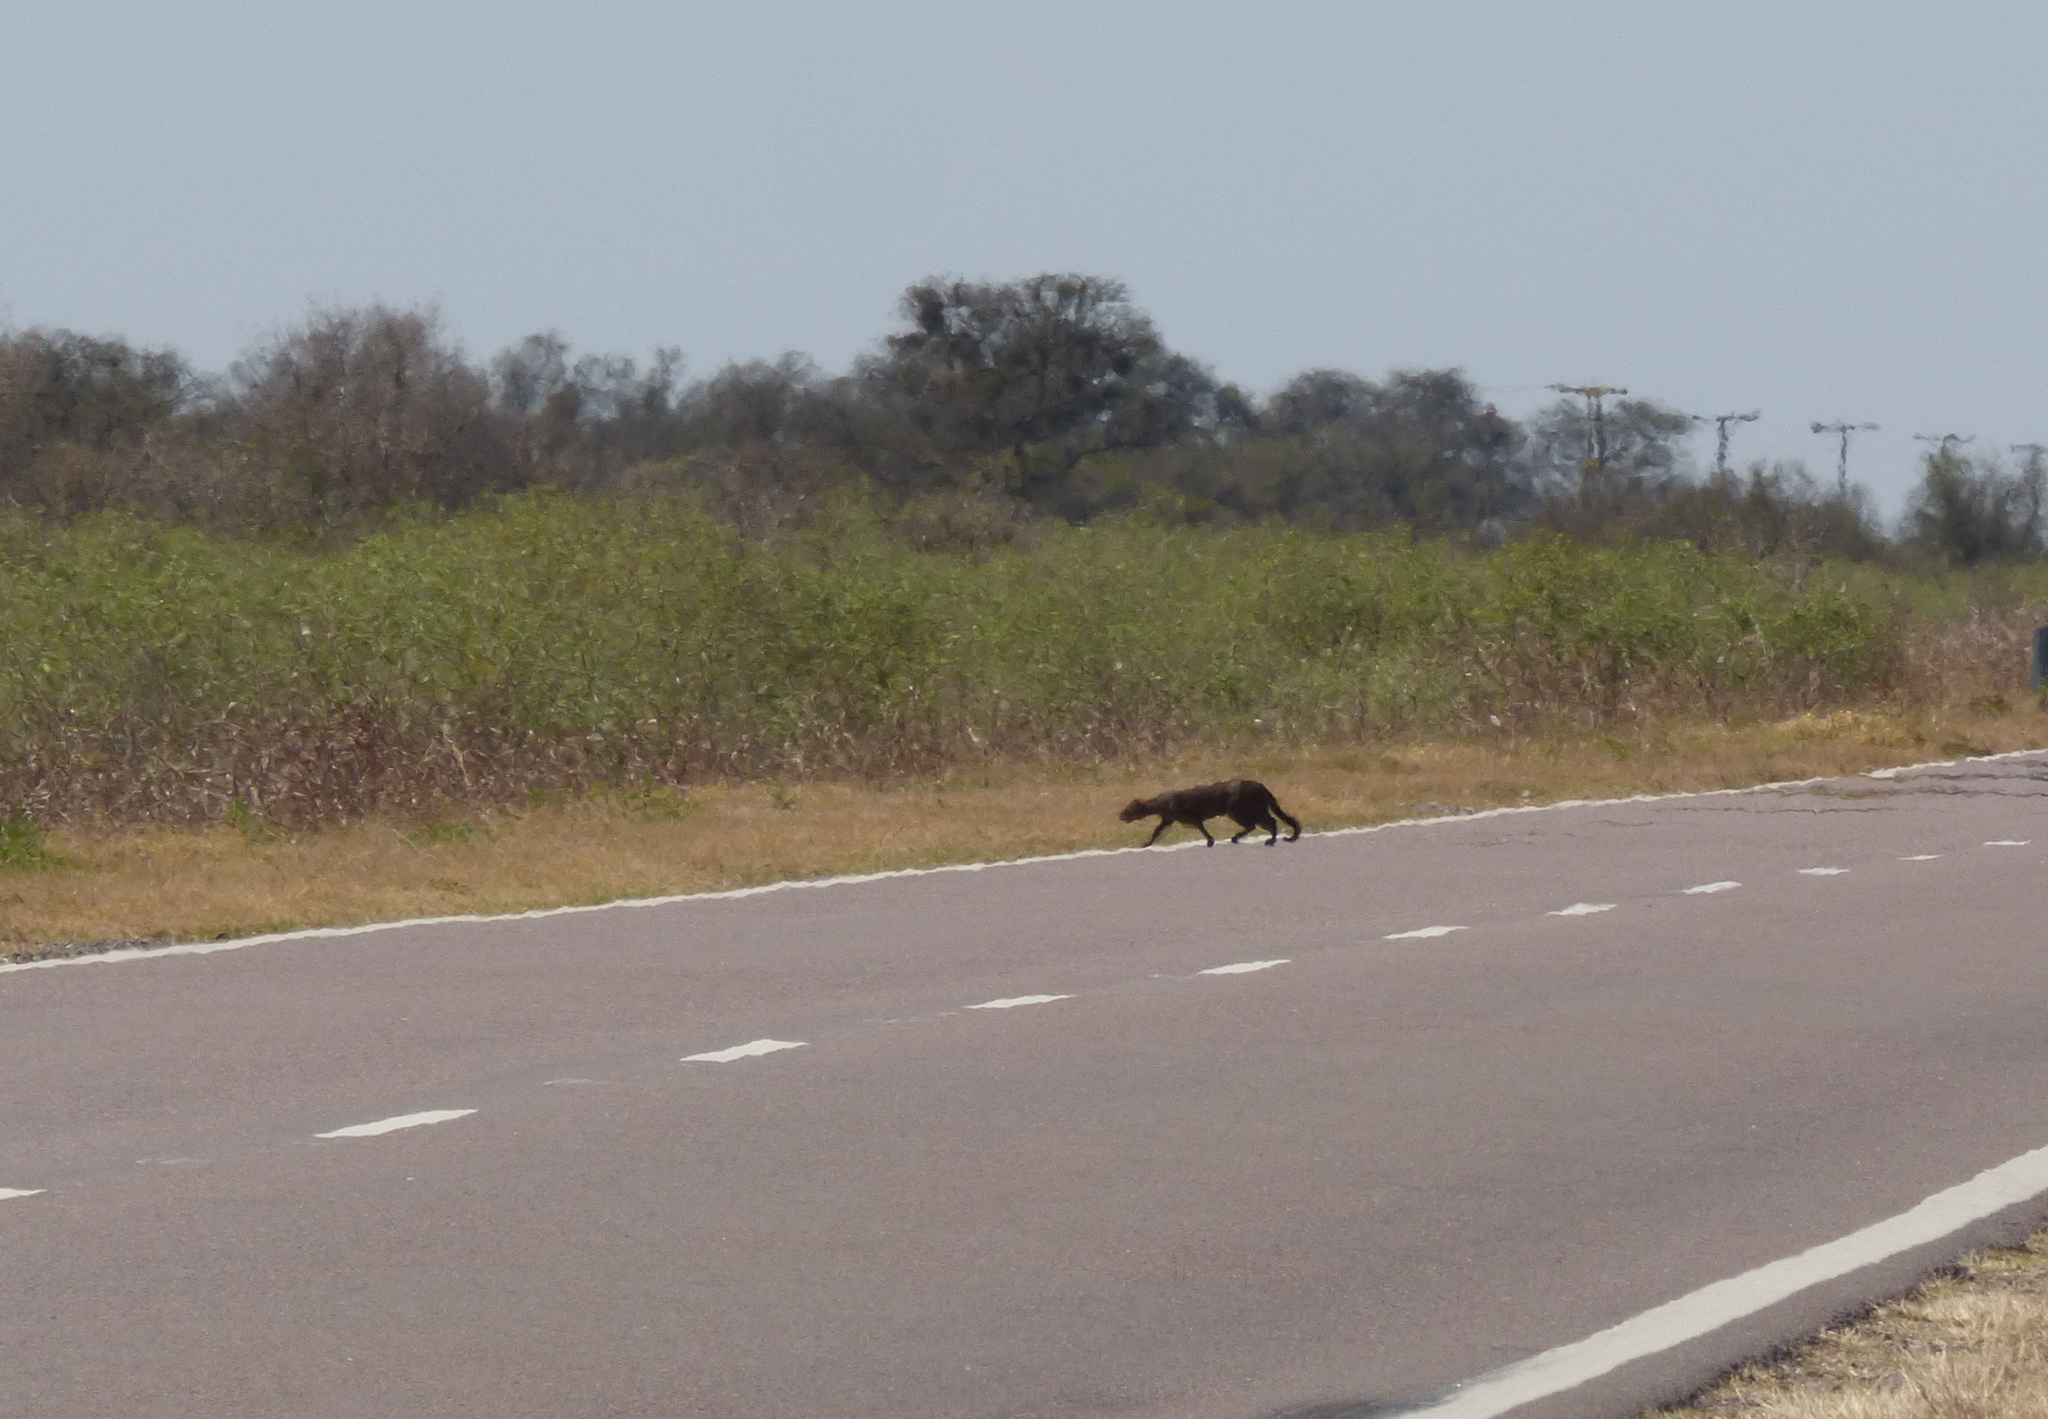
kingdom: Animalia
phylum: Chordata
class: Mammalia
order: Carnivora
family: Felidae
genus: Puma
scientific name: Puma yagouaroundi
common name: Jaguarundi
